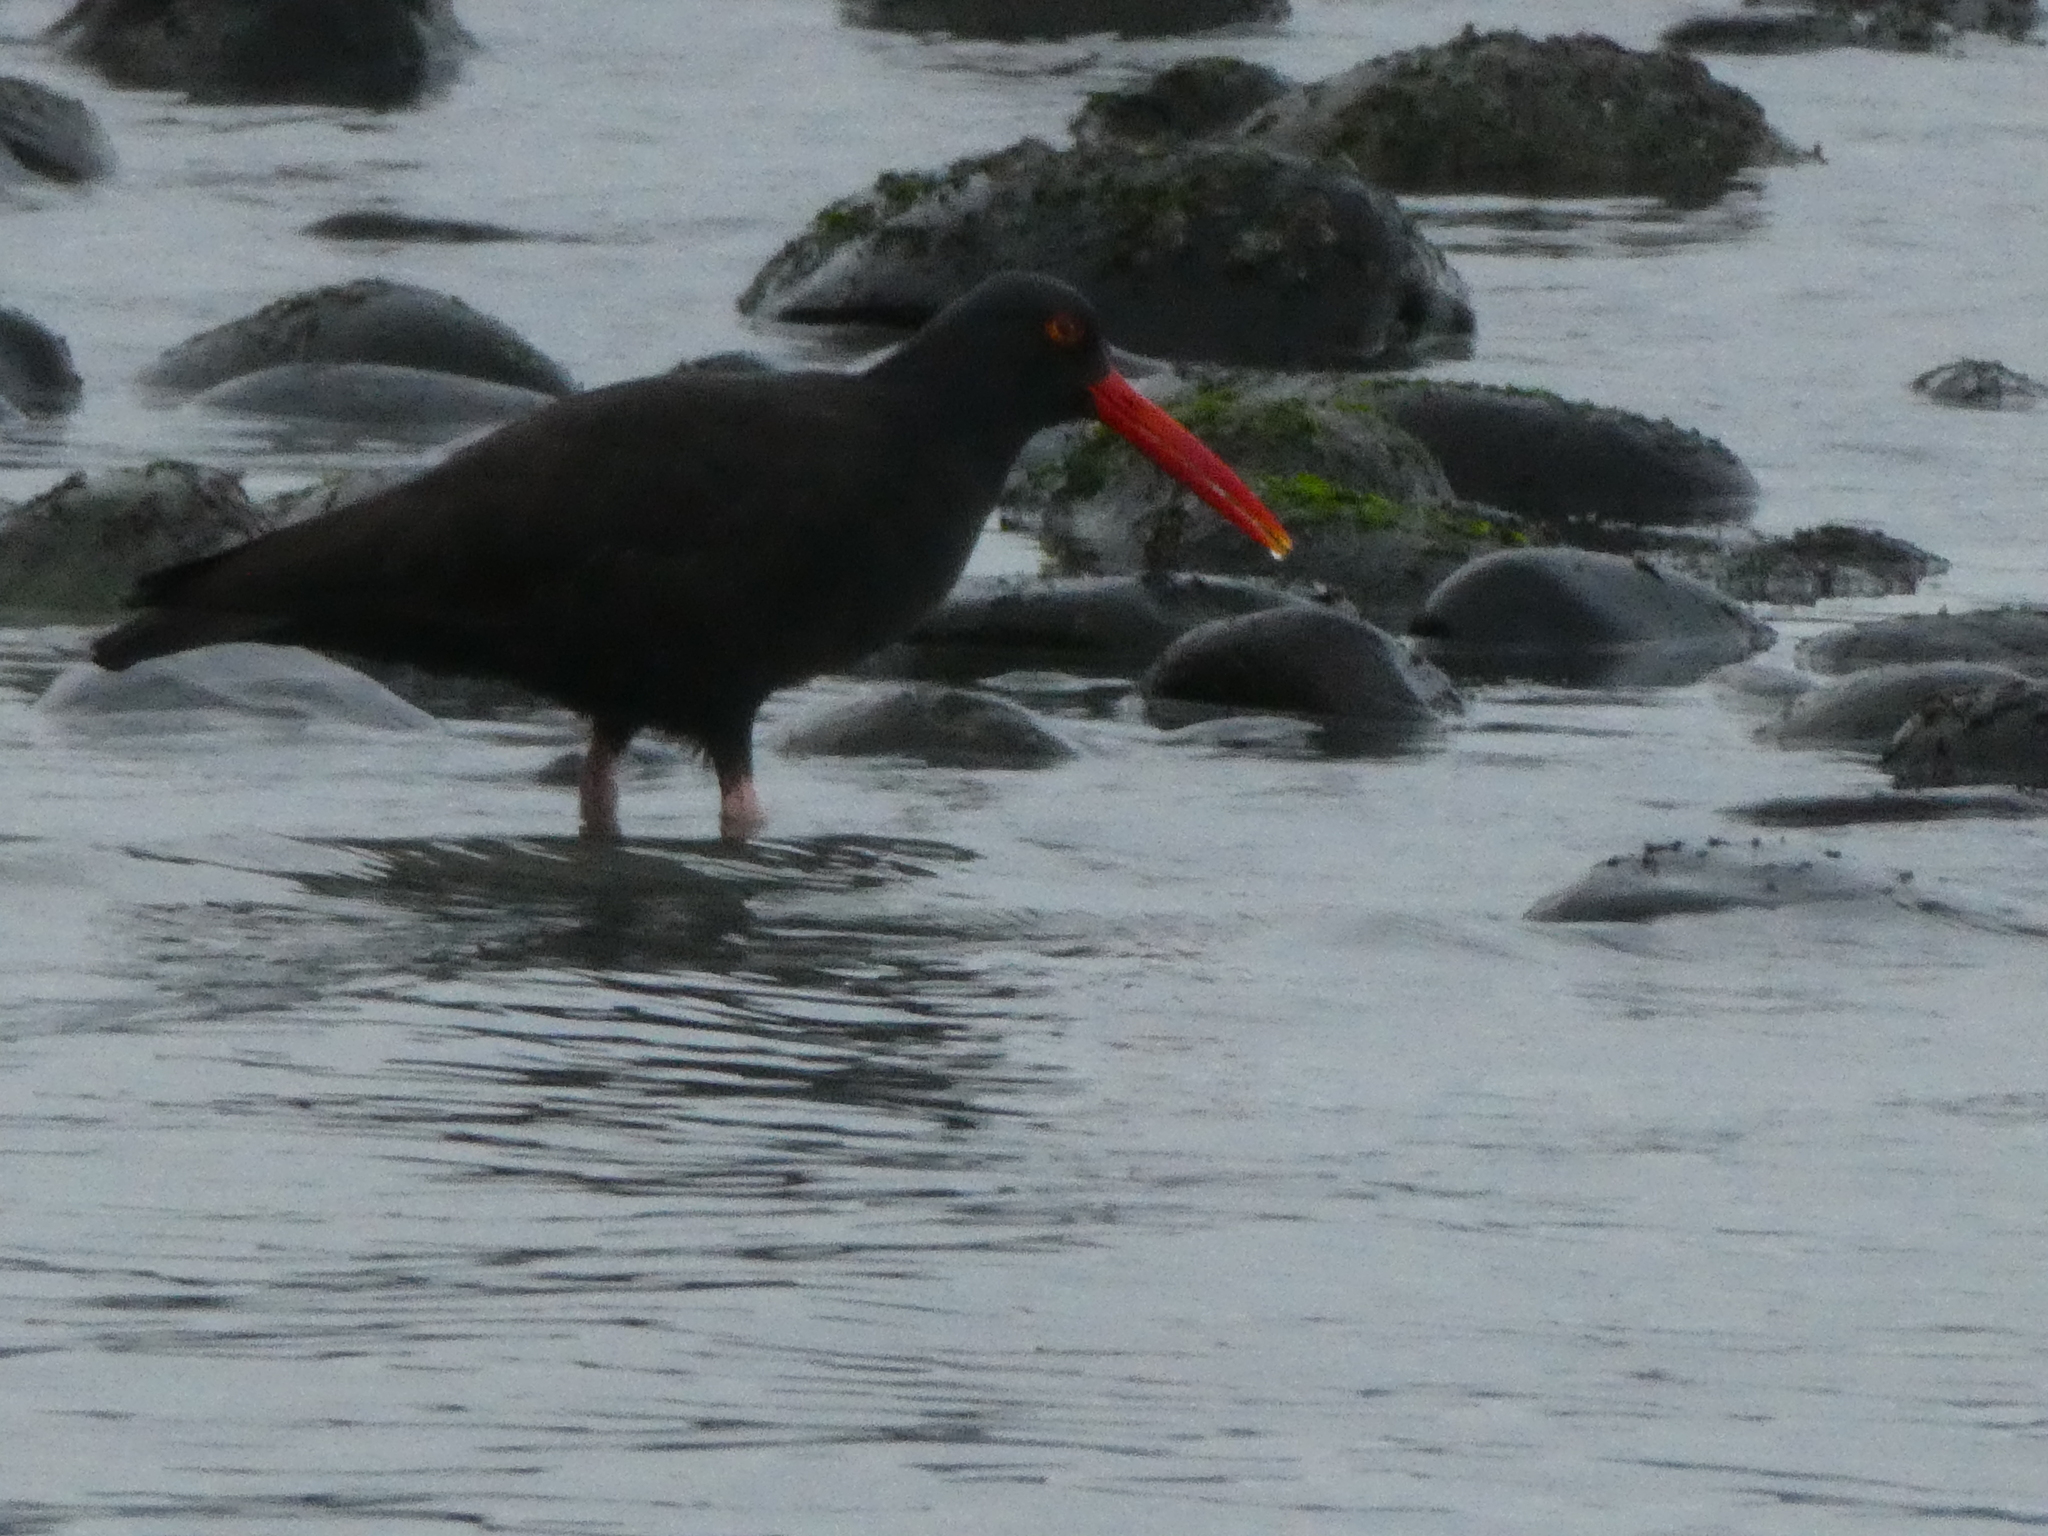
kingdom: Animalia
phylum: Chordata
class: Aves
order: Charadriiformes
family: Haematopodidae
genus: Haematopus
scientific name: Haematopus bachmani
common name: Black oystercatcher
